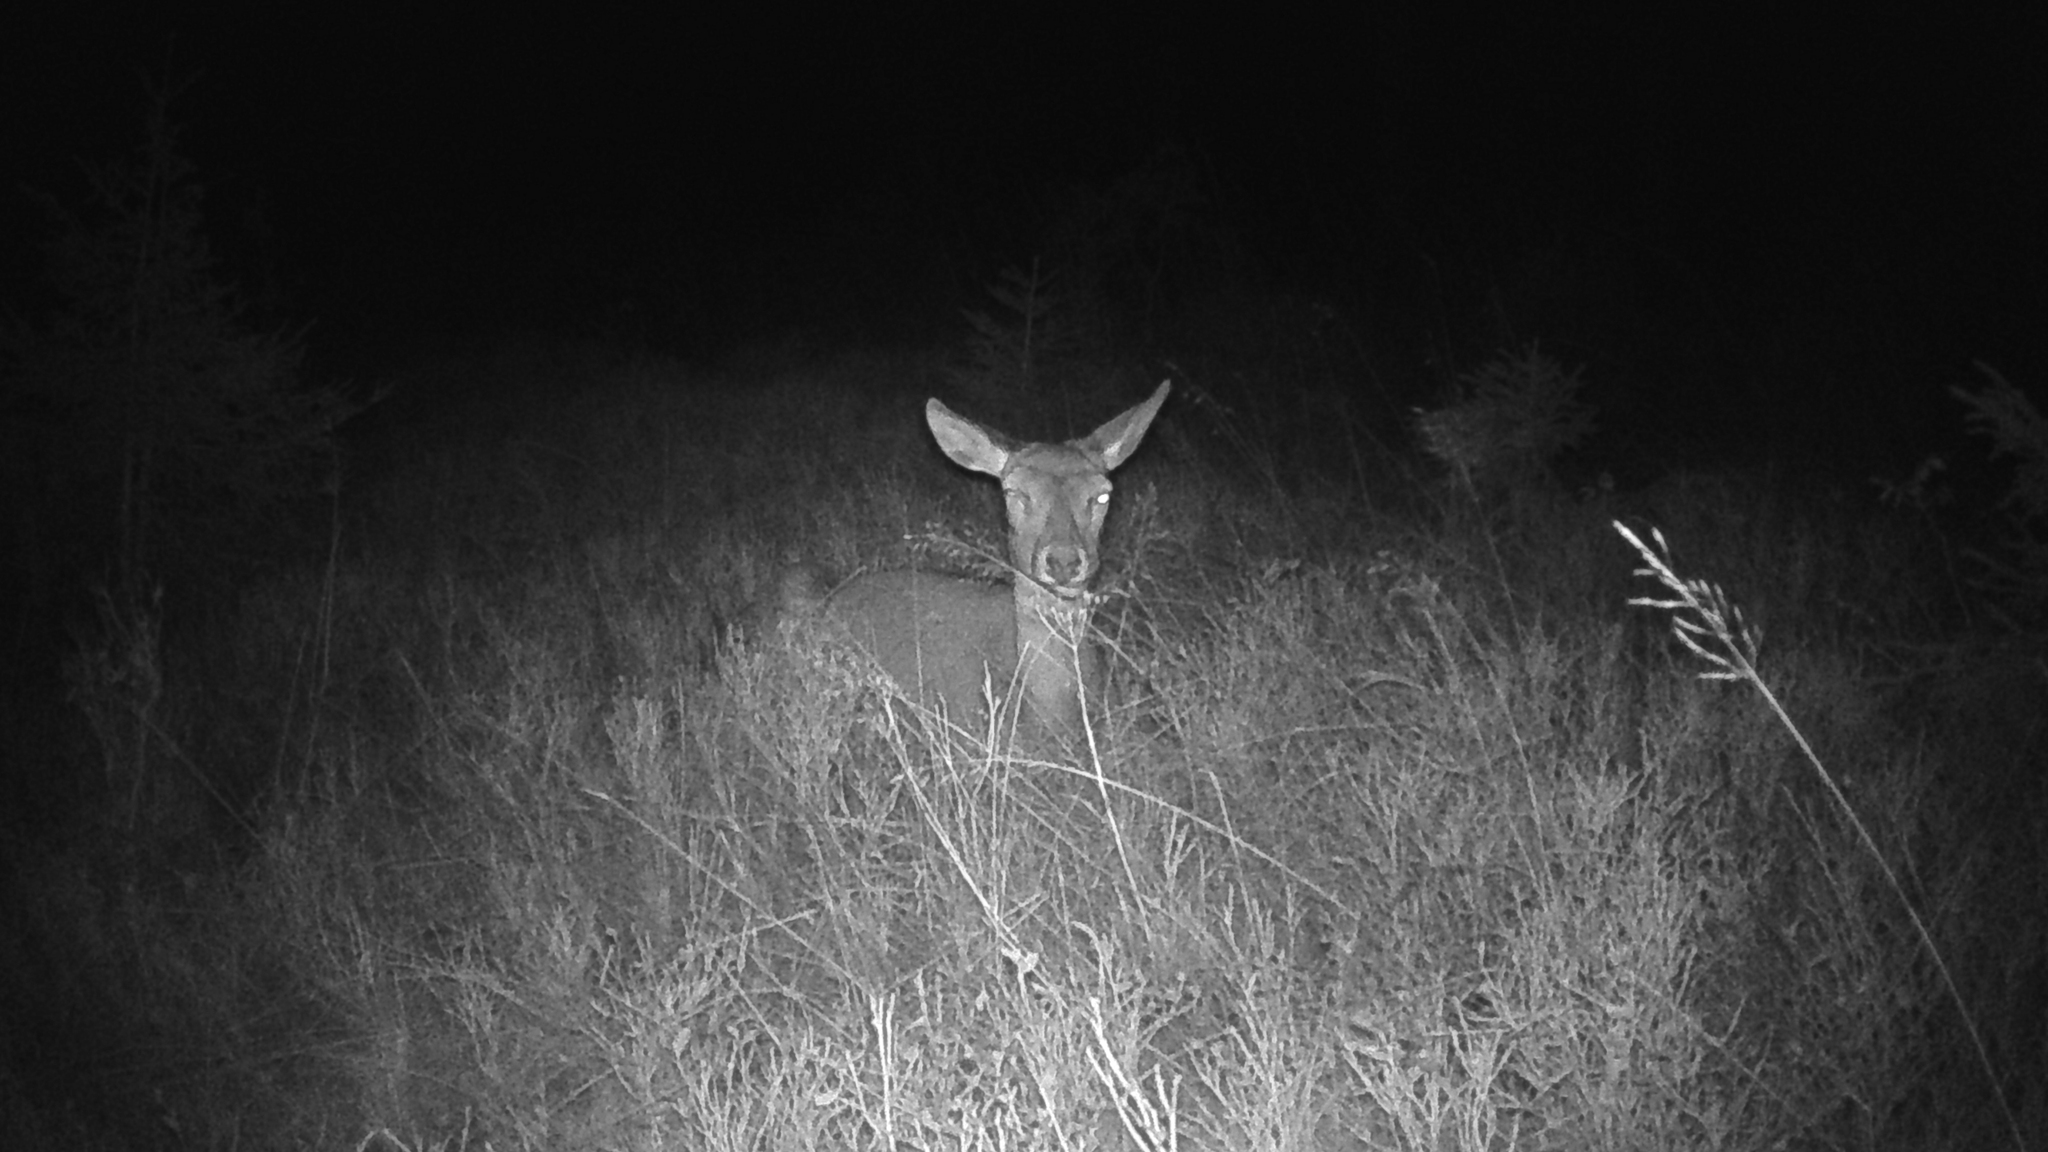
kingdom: Animalia
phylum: Chordata
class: Mammalia
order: Artiodactyla
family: Cervidae
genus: Cervus
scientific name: Cervus elaphus
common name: Red deer
